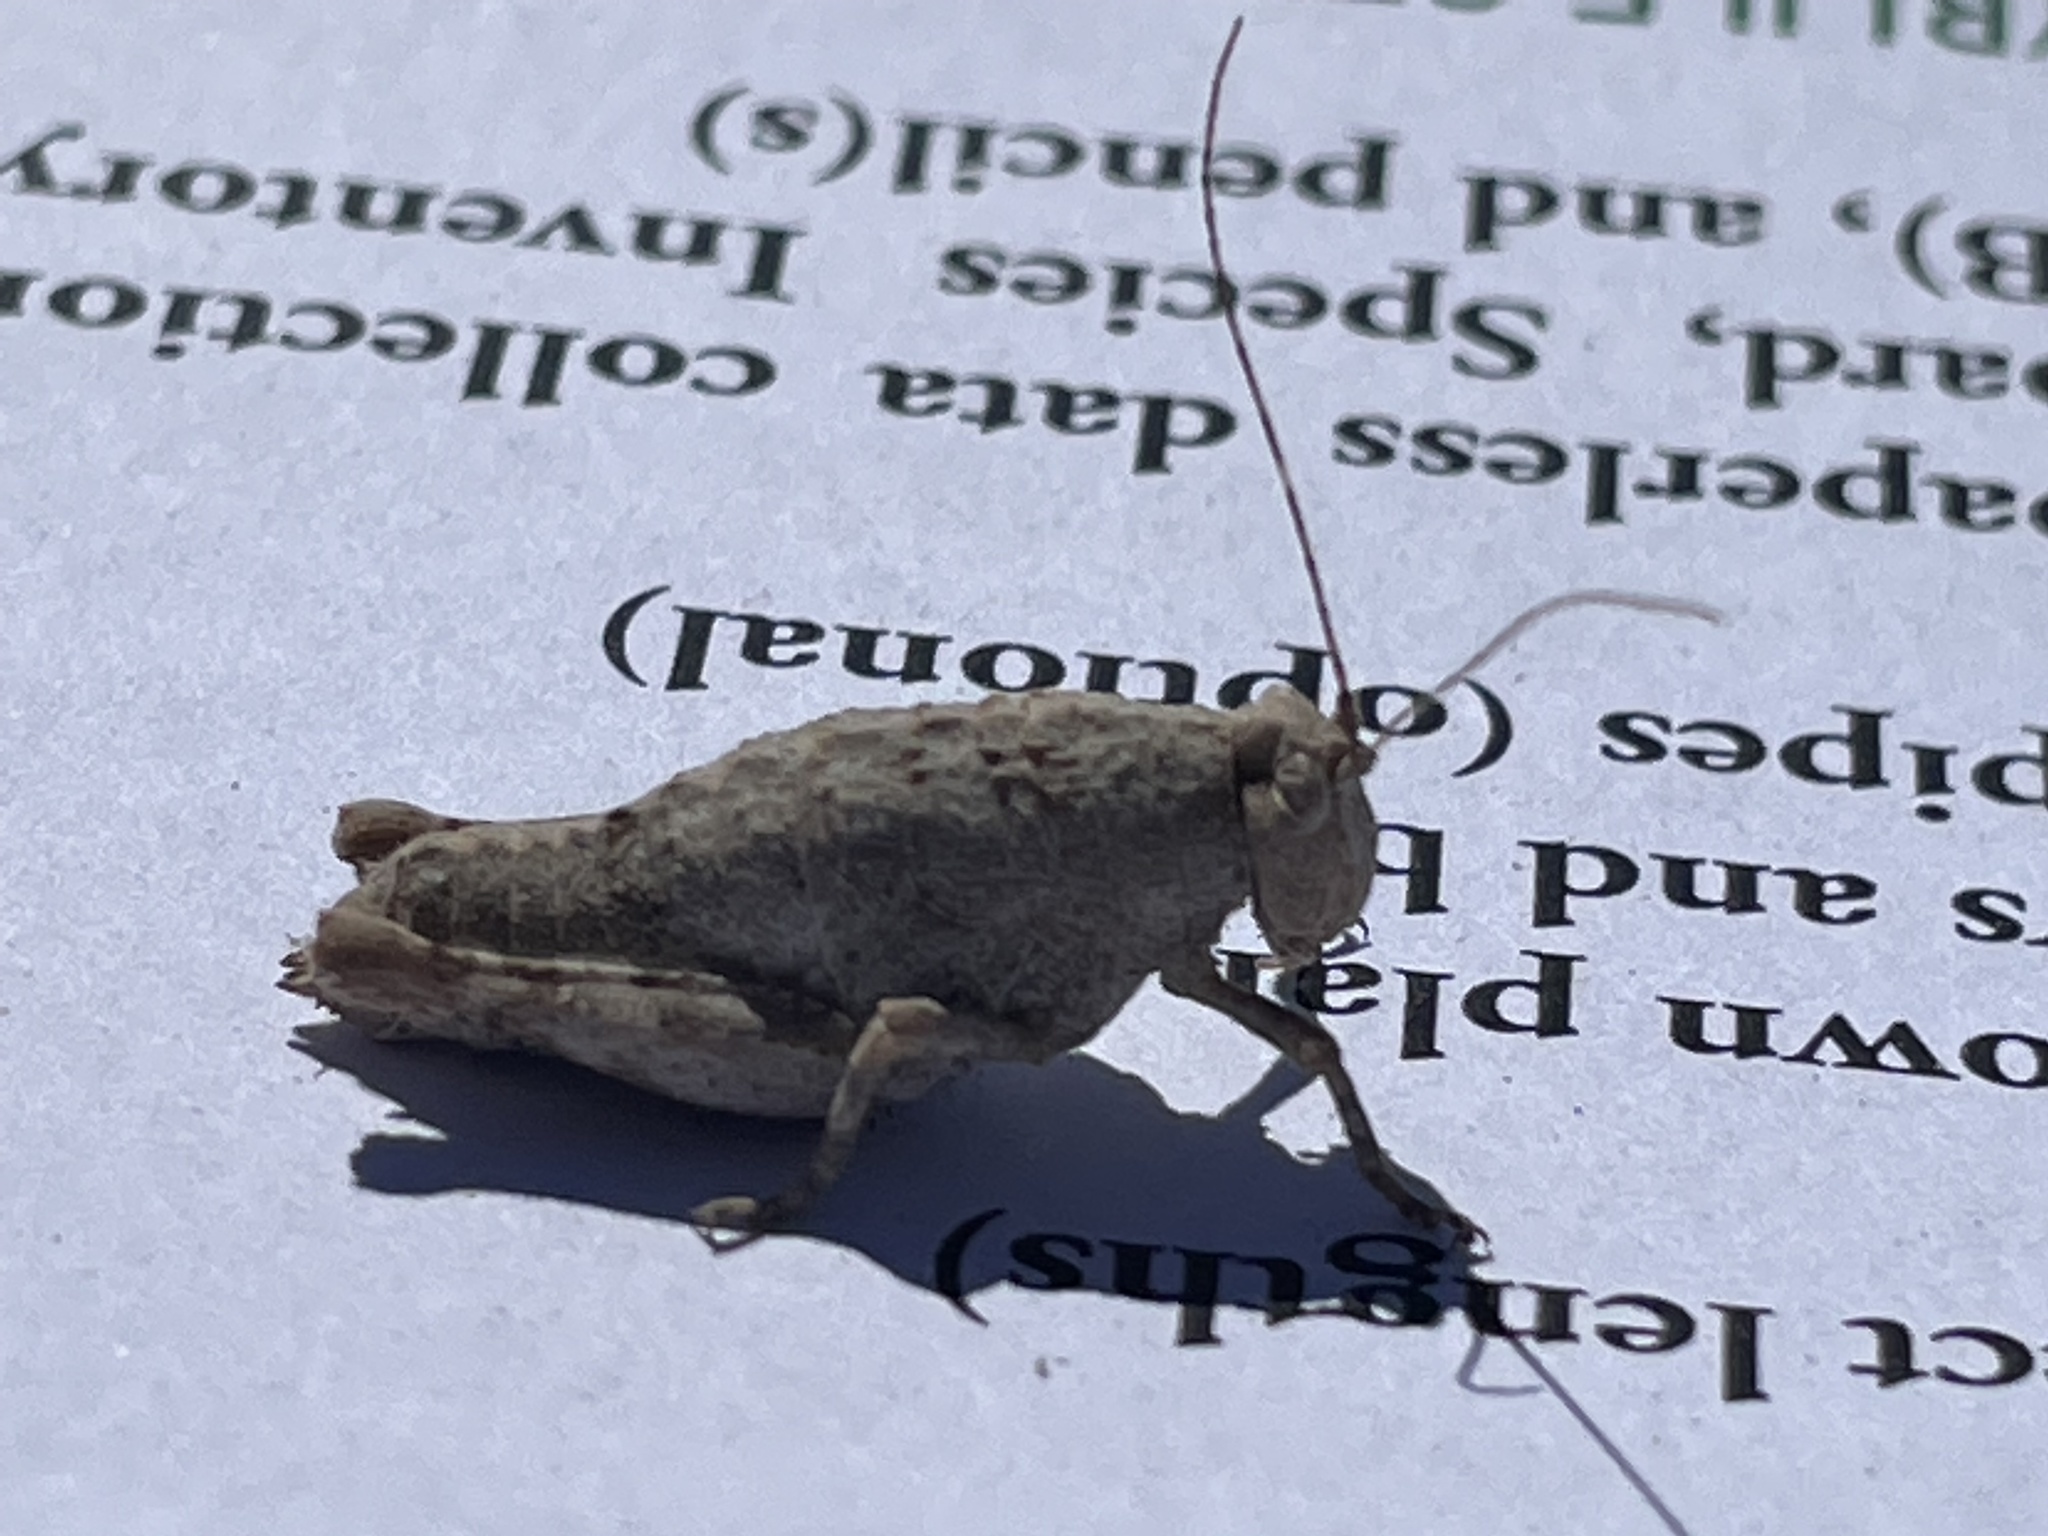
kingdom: Animalia
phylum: Arthropoda
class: Insecta
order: Orthoptera
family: Tanaoceridae
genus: Tanaocerus
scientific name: Tanaocerus koebelei
